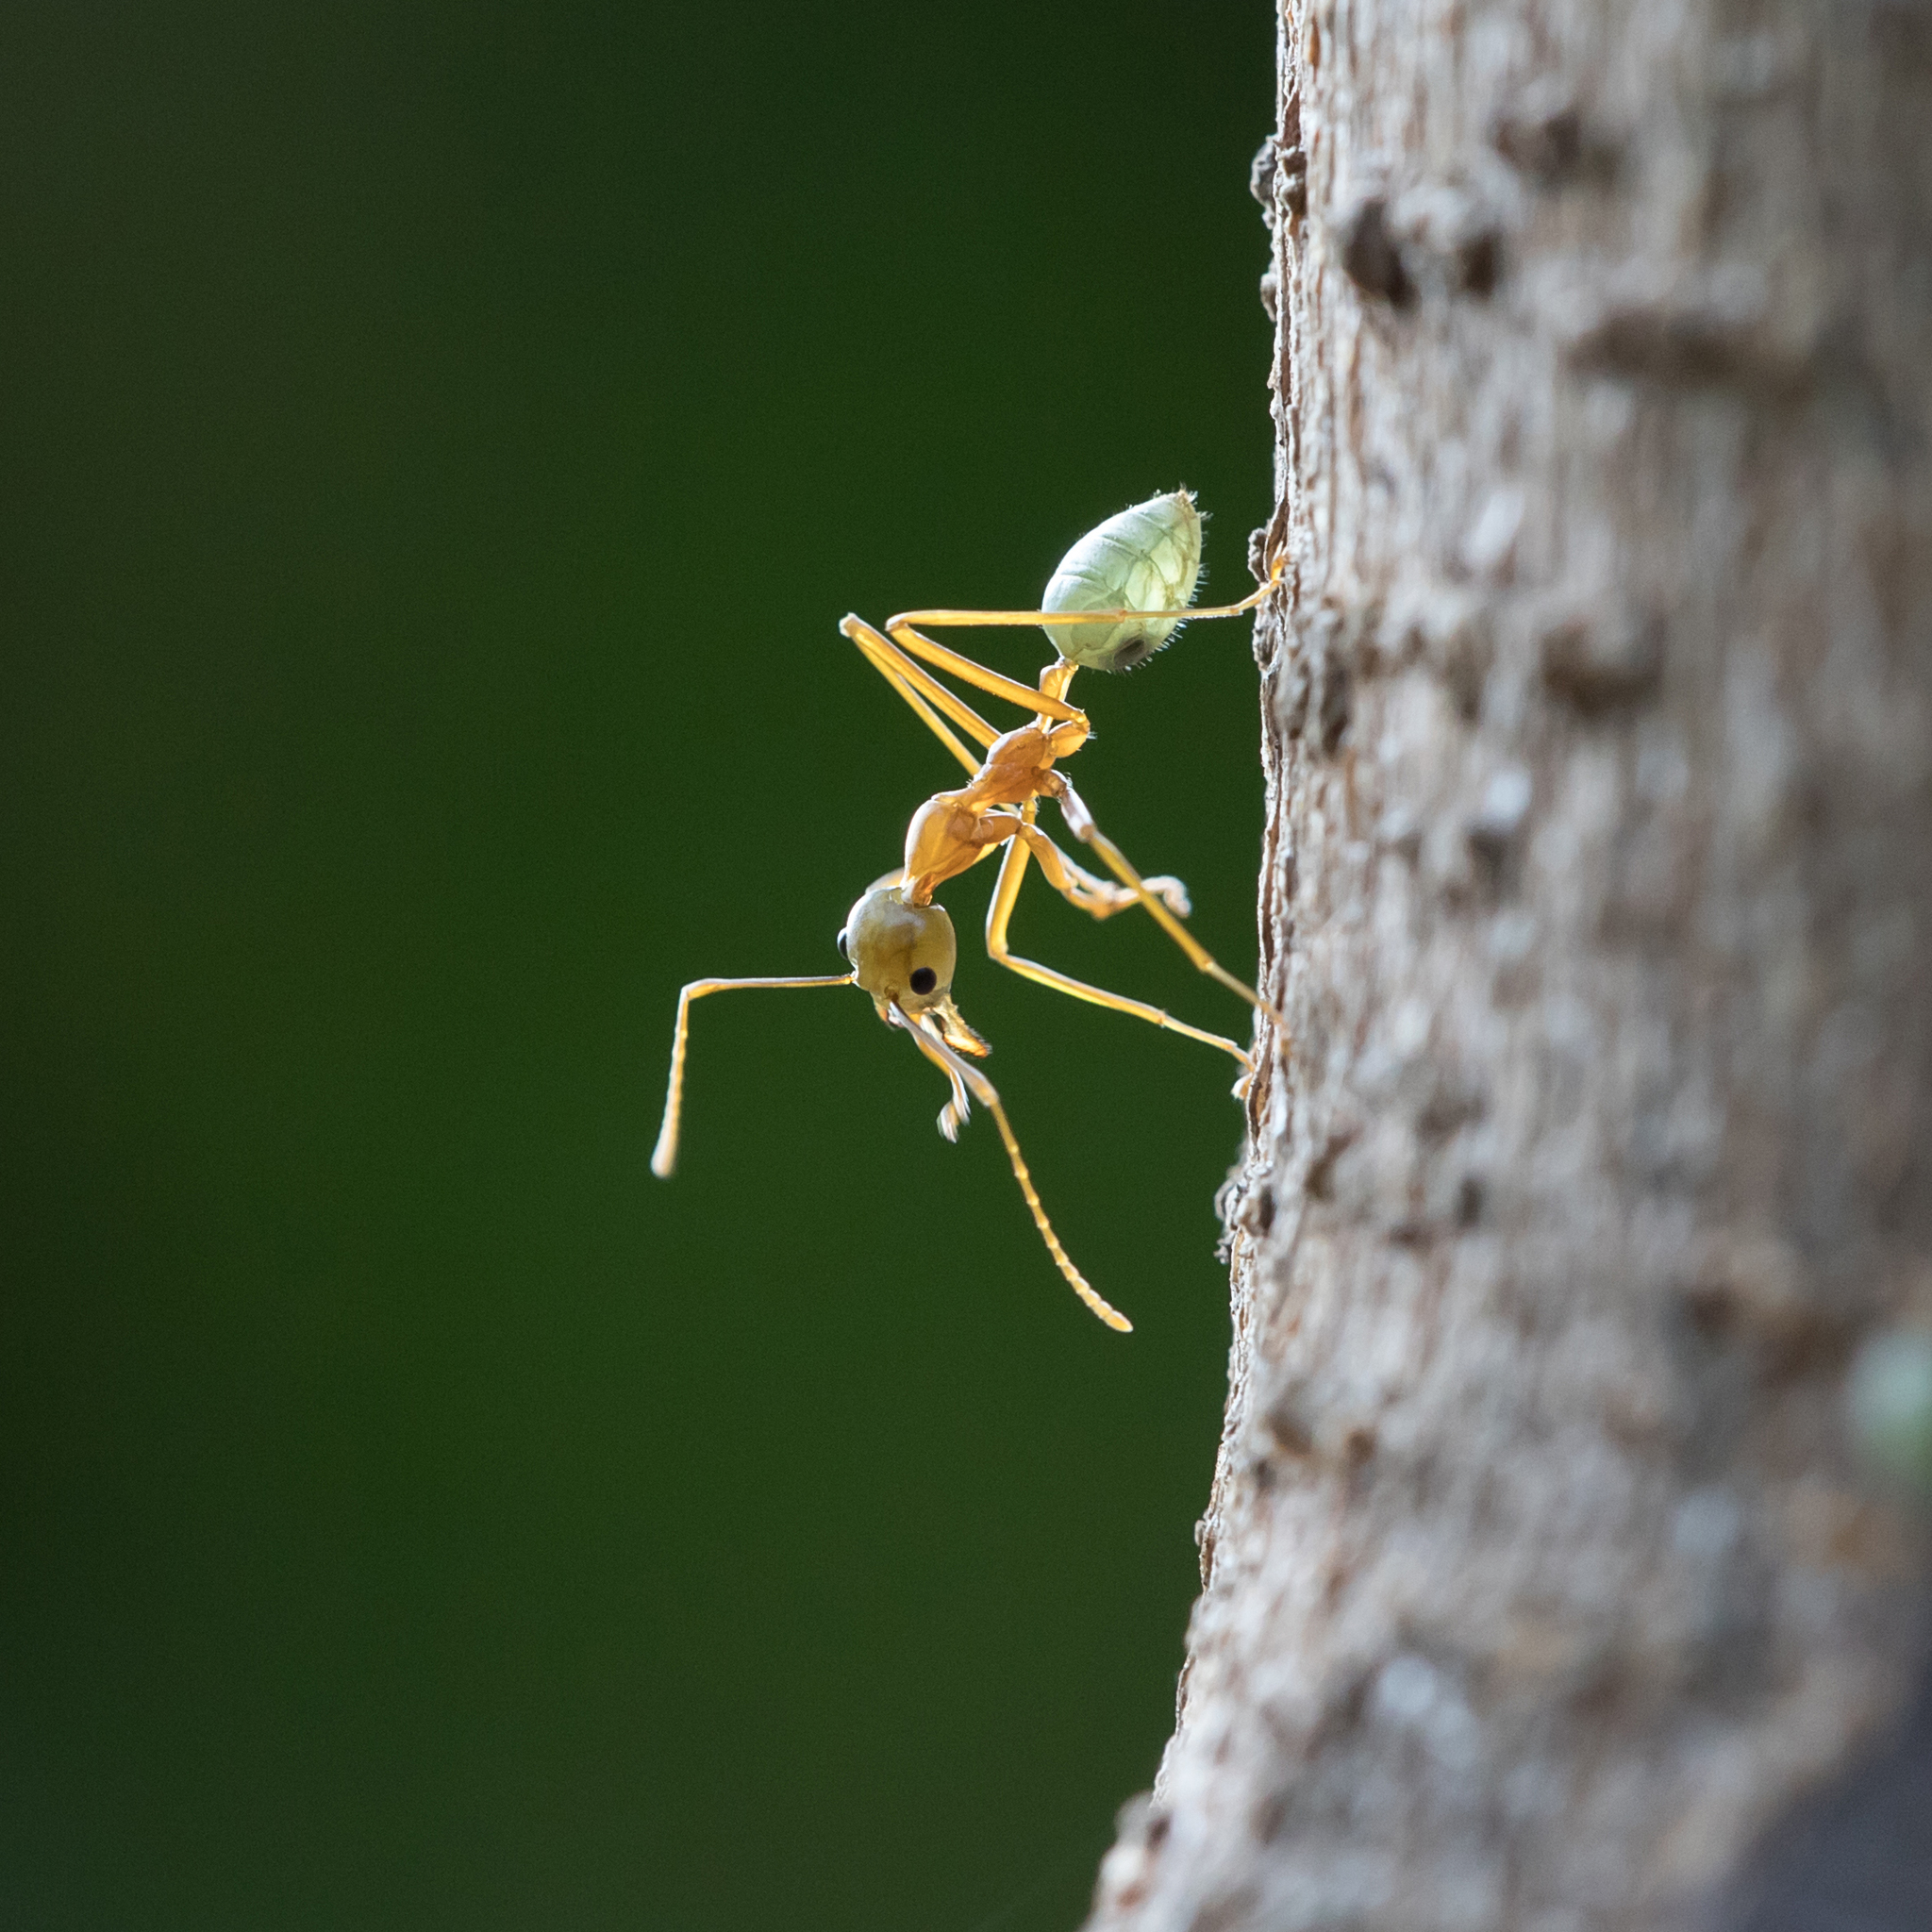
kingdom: Animalia
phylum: Arthropoda
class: Insecta
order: Hymenoptera
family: Formicidae
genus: Oecophylla
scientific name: Oecophylla smaragdina
